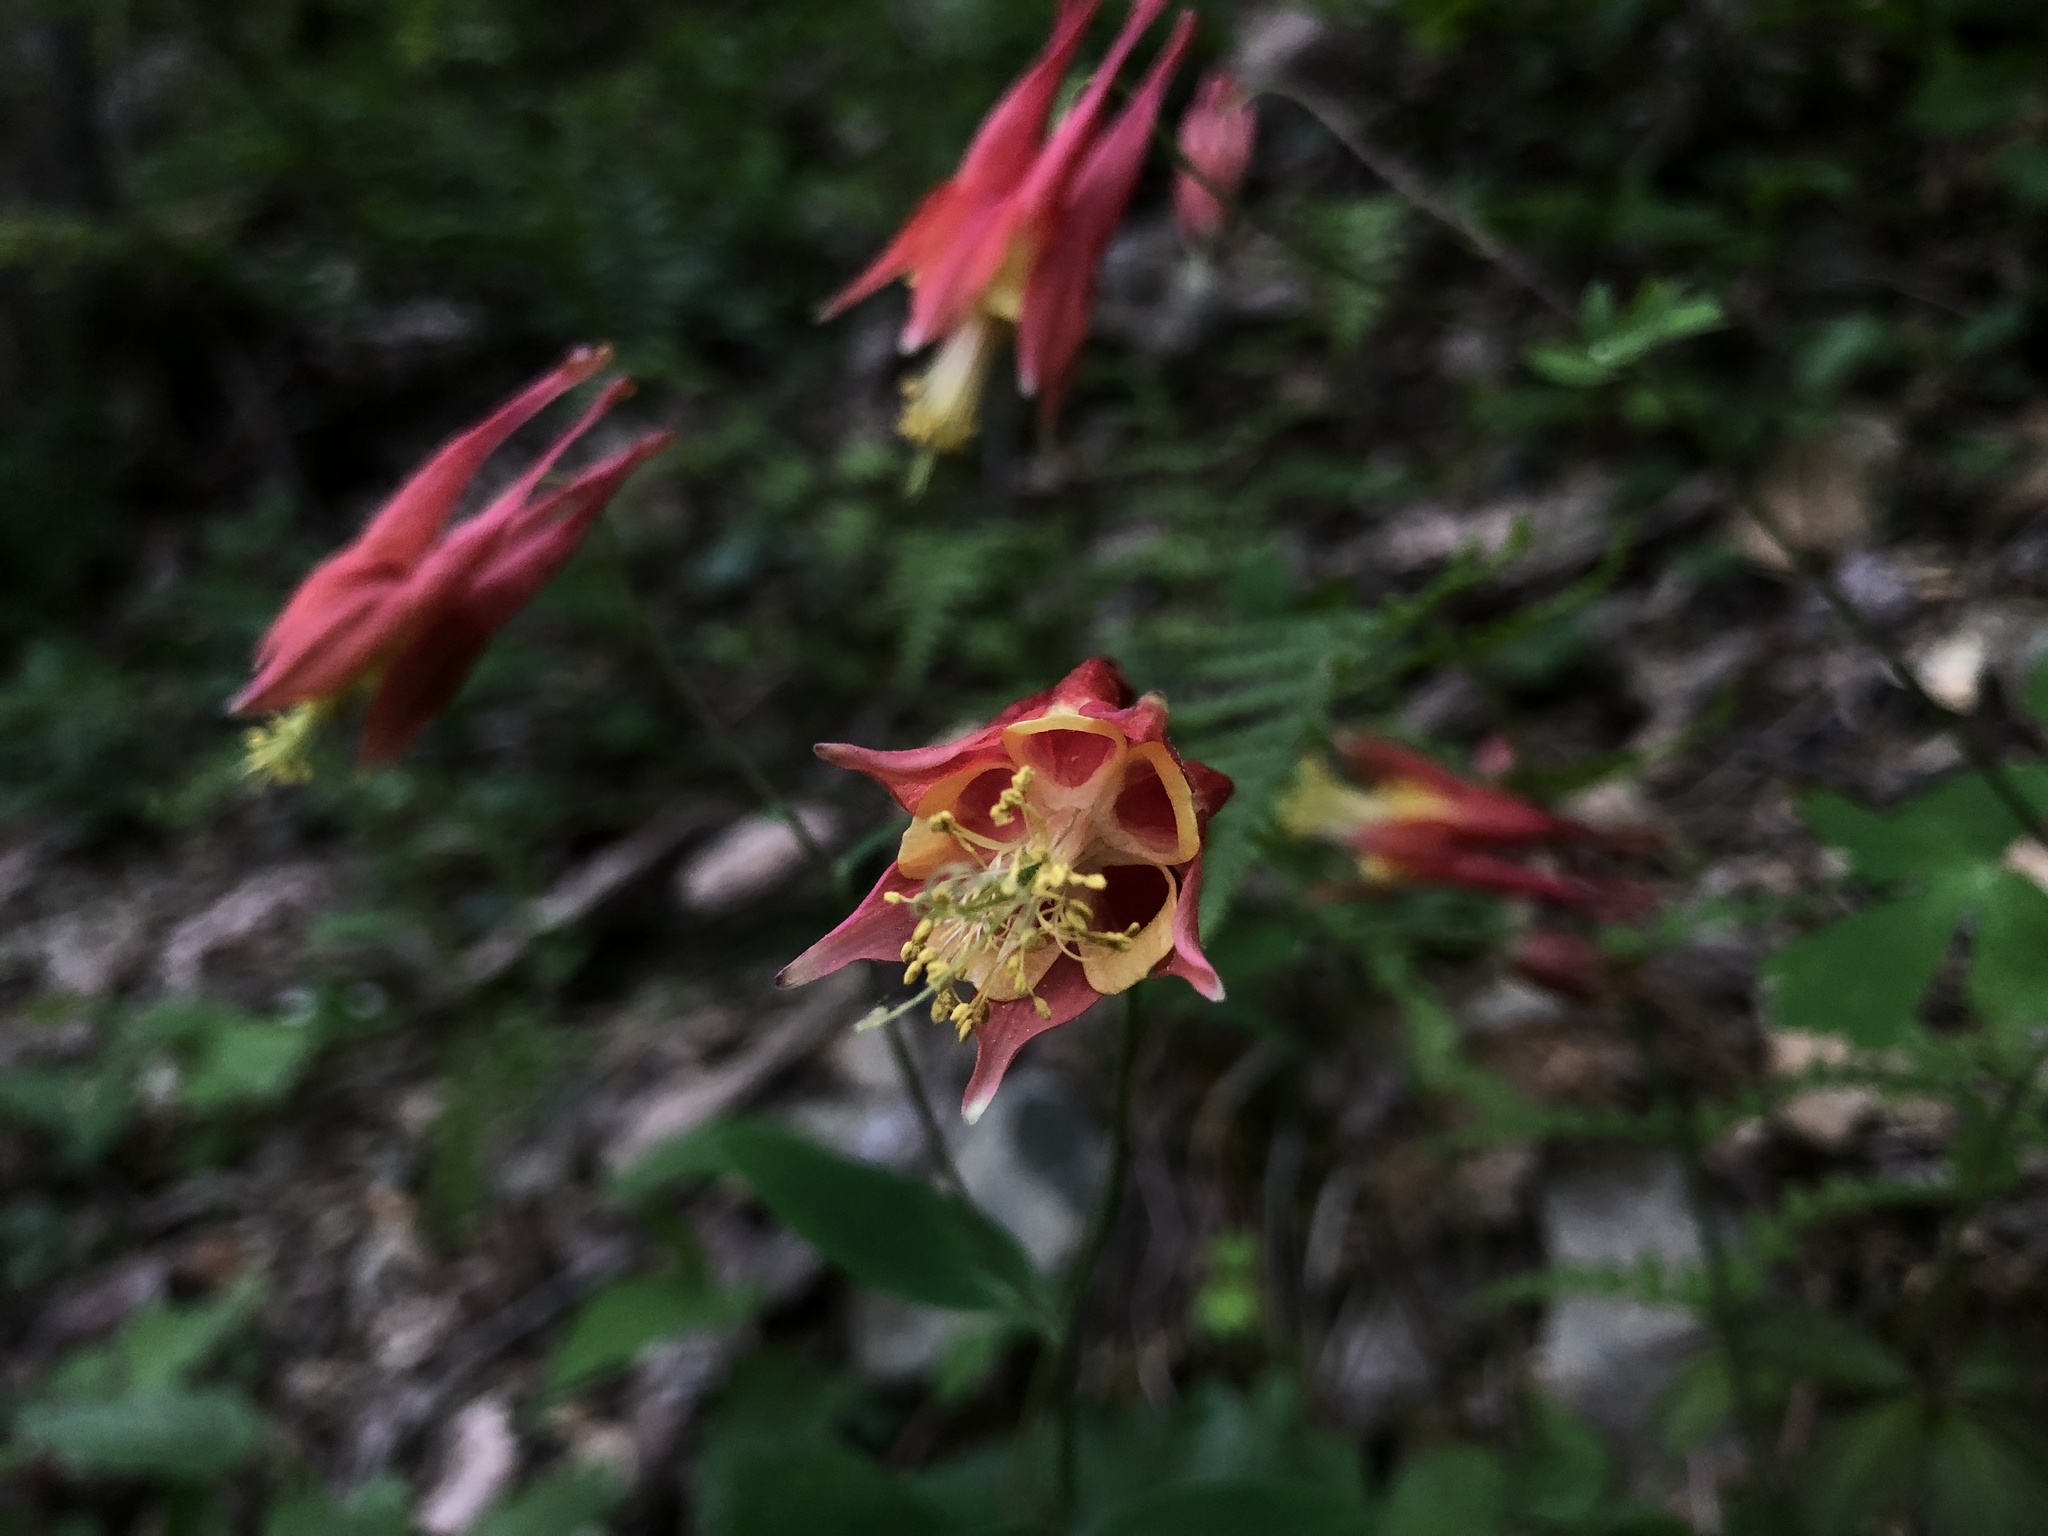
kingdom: Plantae
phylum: Tracheophyta
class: Magnoliopsida
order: Ranunculales
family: Ranunculaceae
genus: Aquilegia
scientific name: Aquilegia canadensis
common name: American columbine
